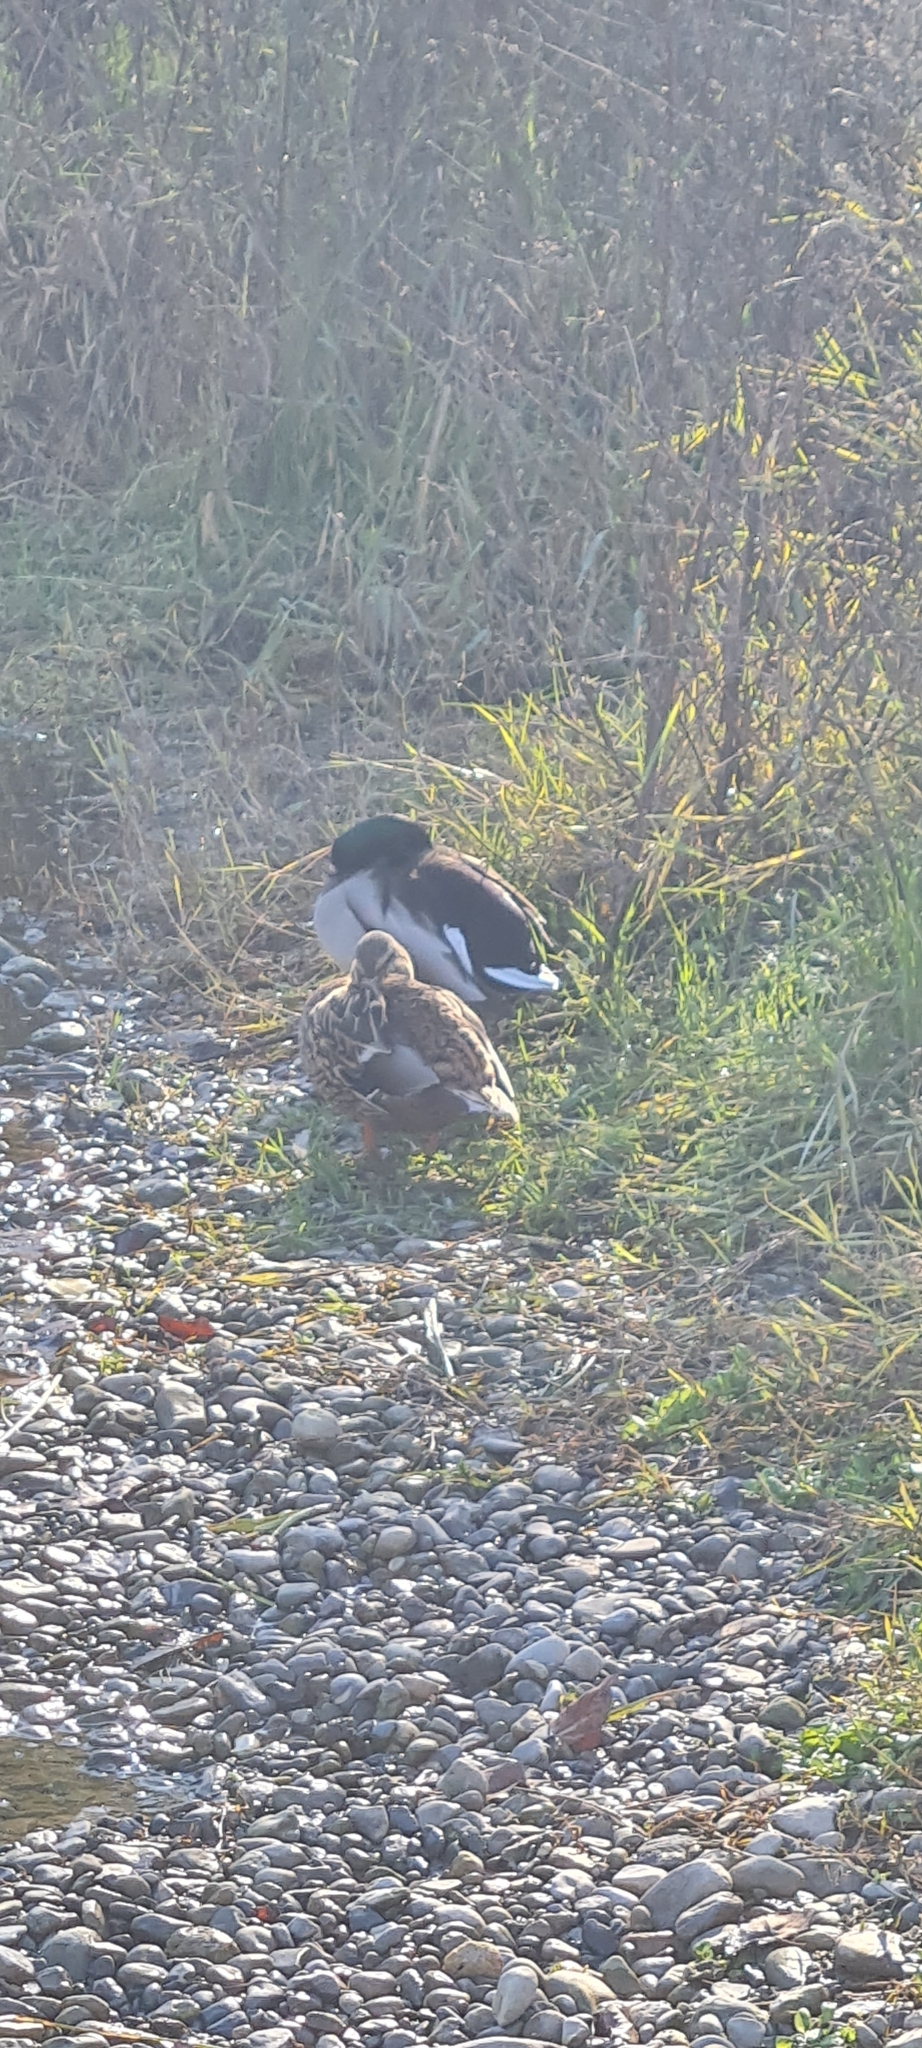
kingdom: Animalia
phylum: Chordata
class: Aves
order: Anseriformes
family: Anatidae
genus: Anas
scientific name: Anas platyrhynchos
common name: Mallard
